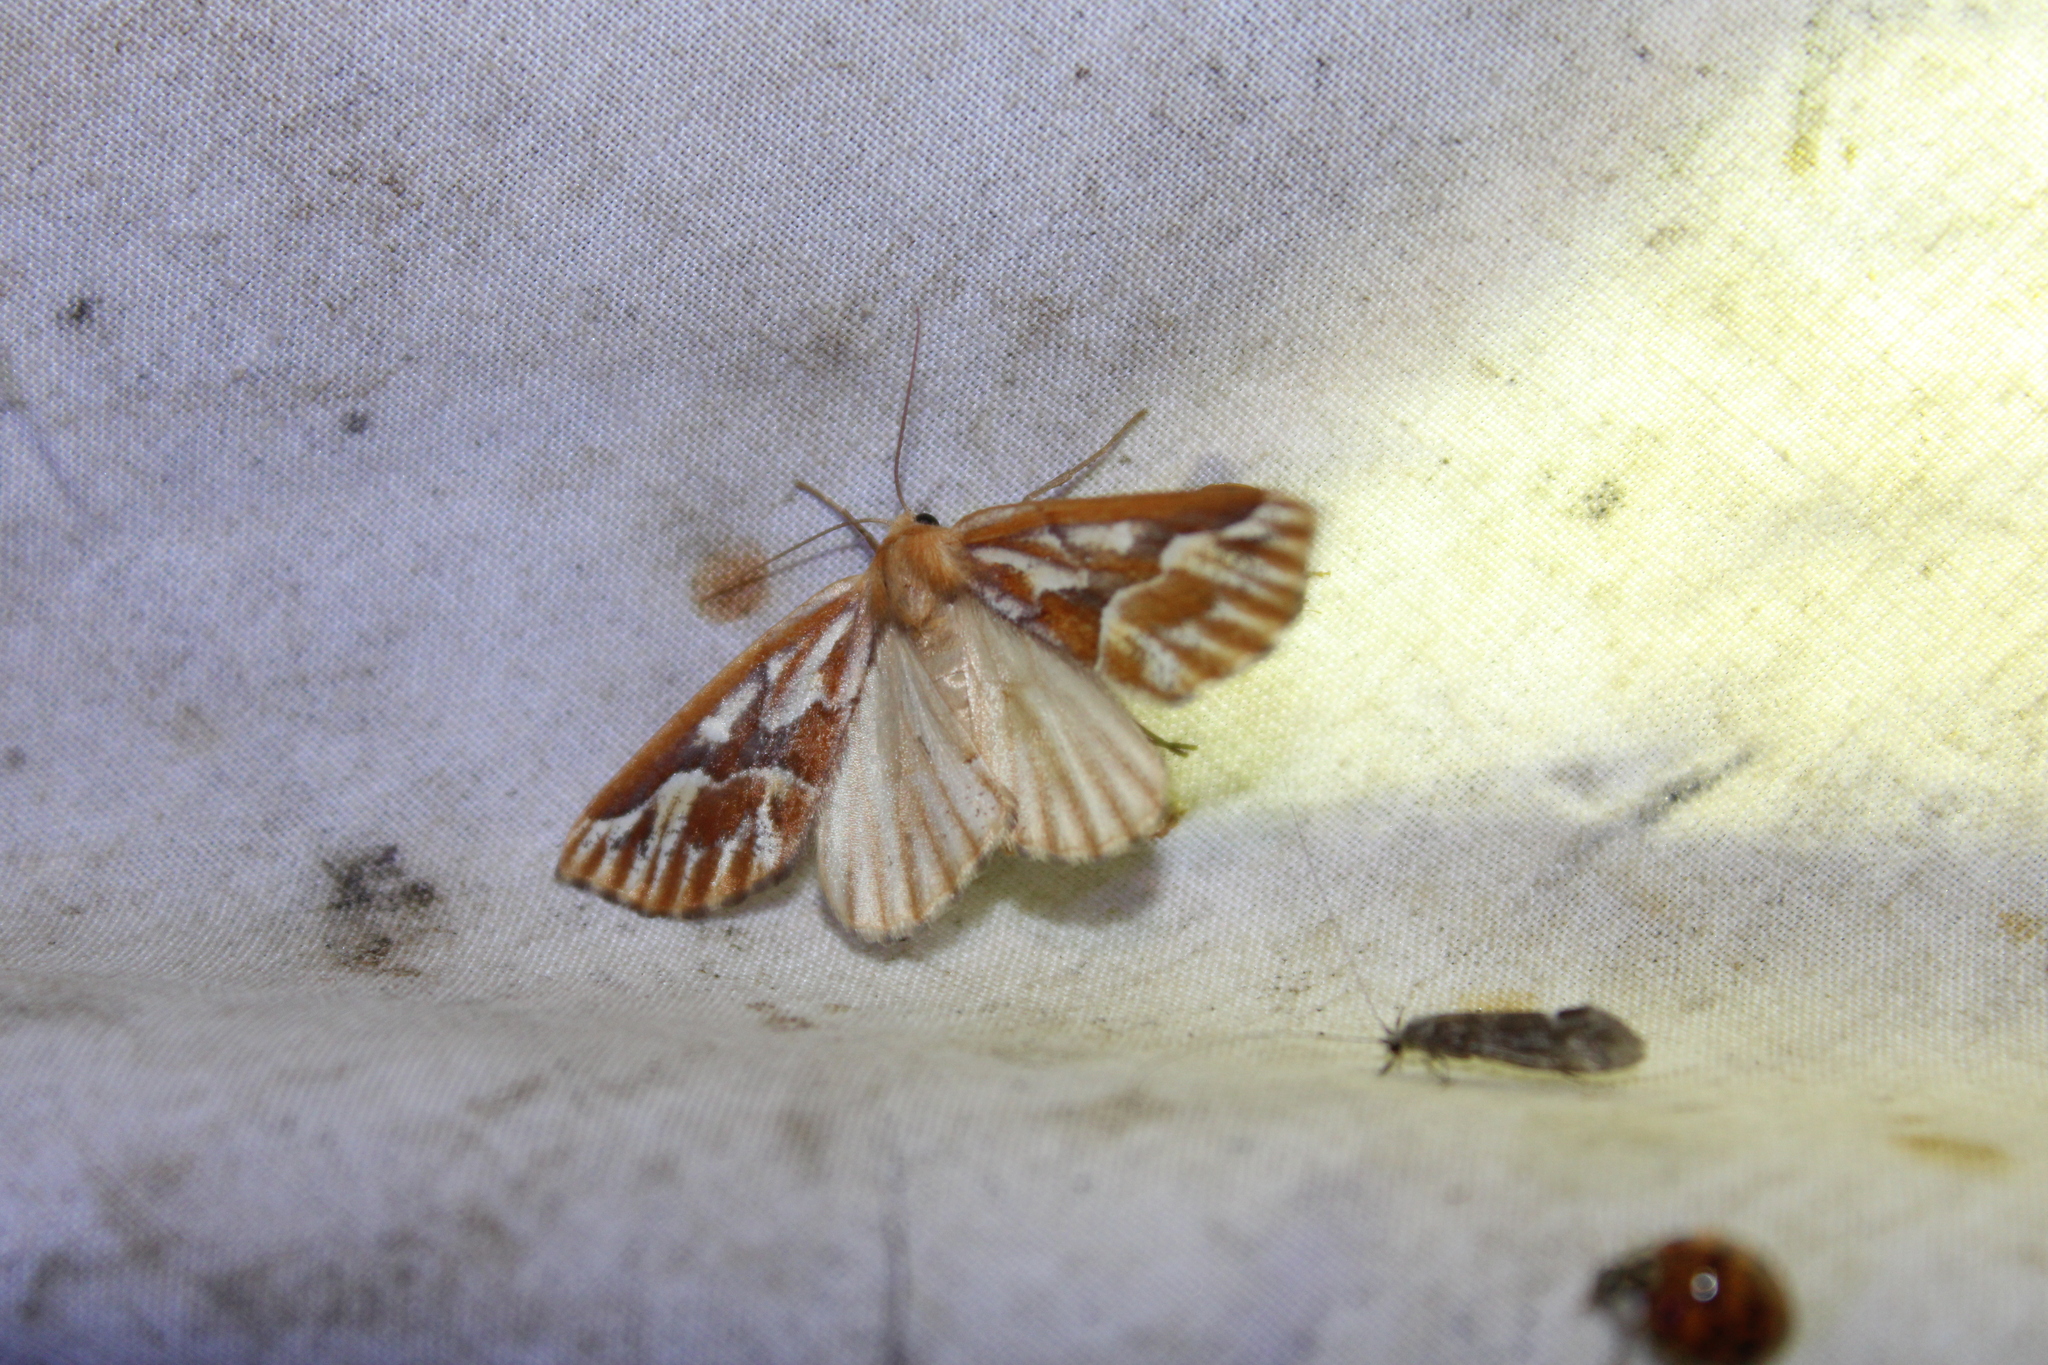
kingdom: Animalia
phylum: Arthropoda
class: Insecta
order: Lepidoptera
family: Geometridae
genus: Caripeta
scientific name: Caripeta piniata
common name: Northern pine looper moth
